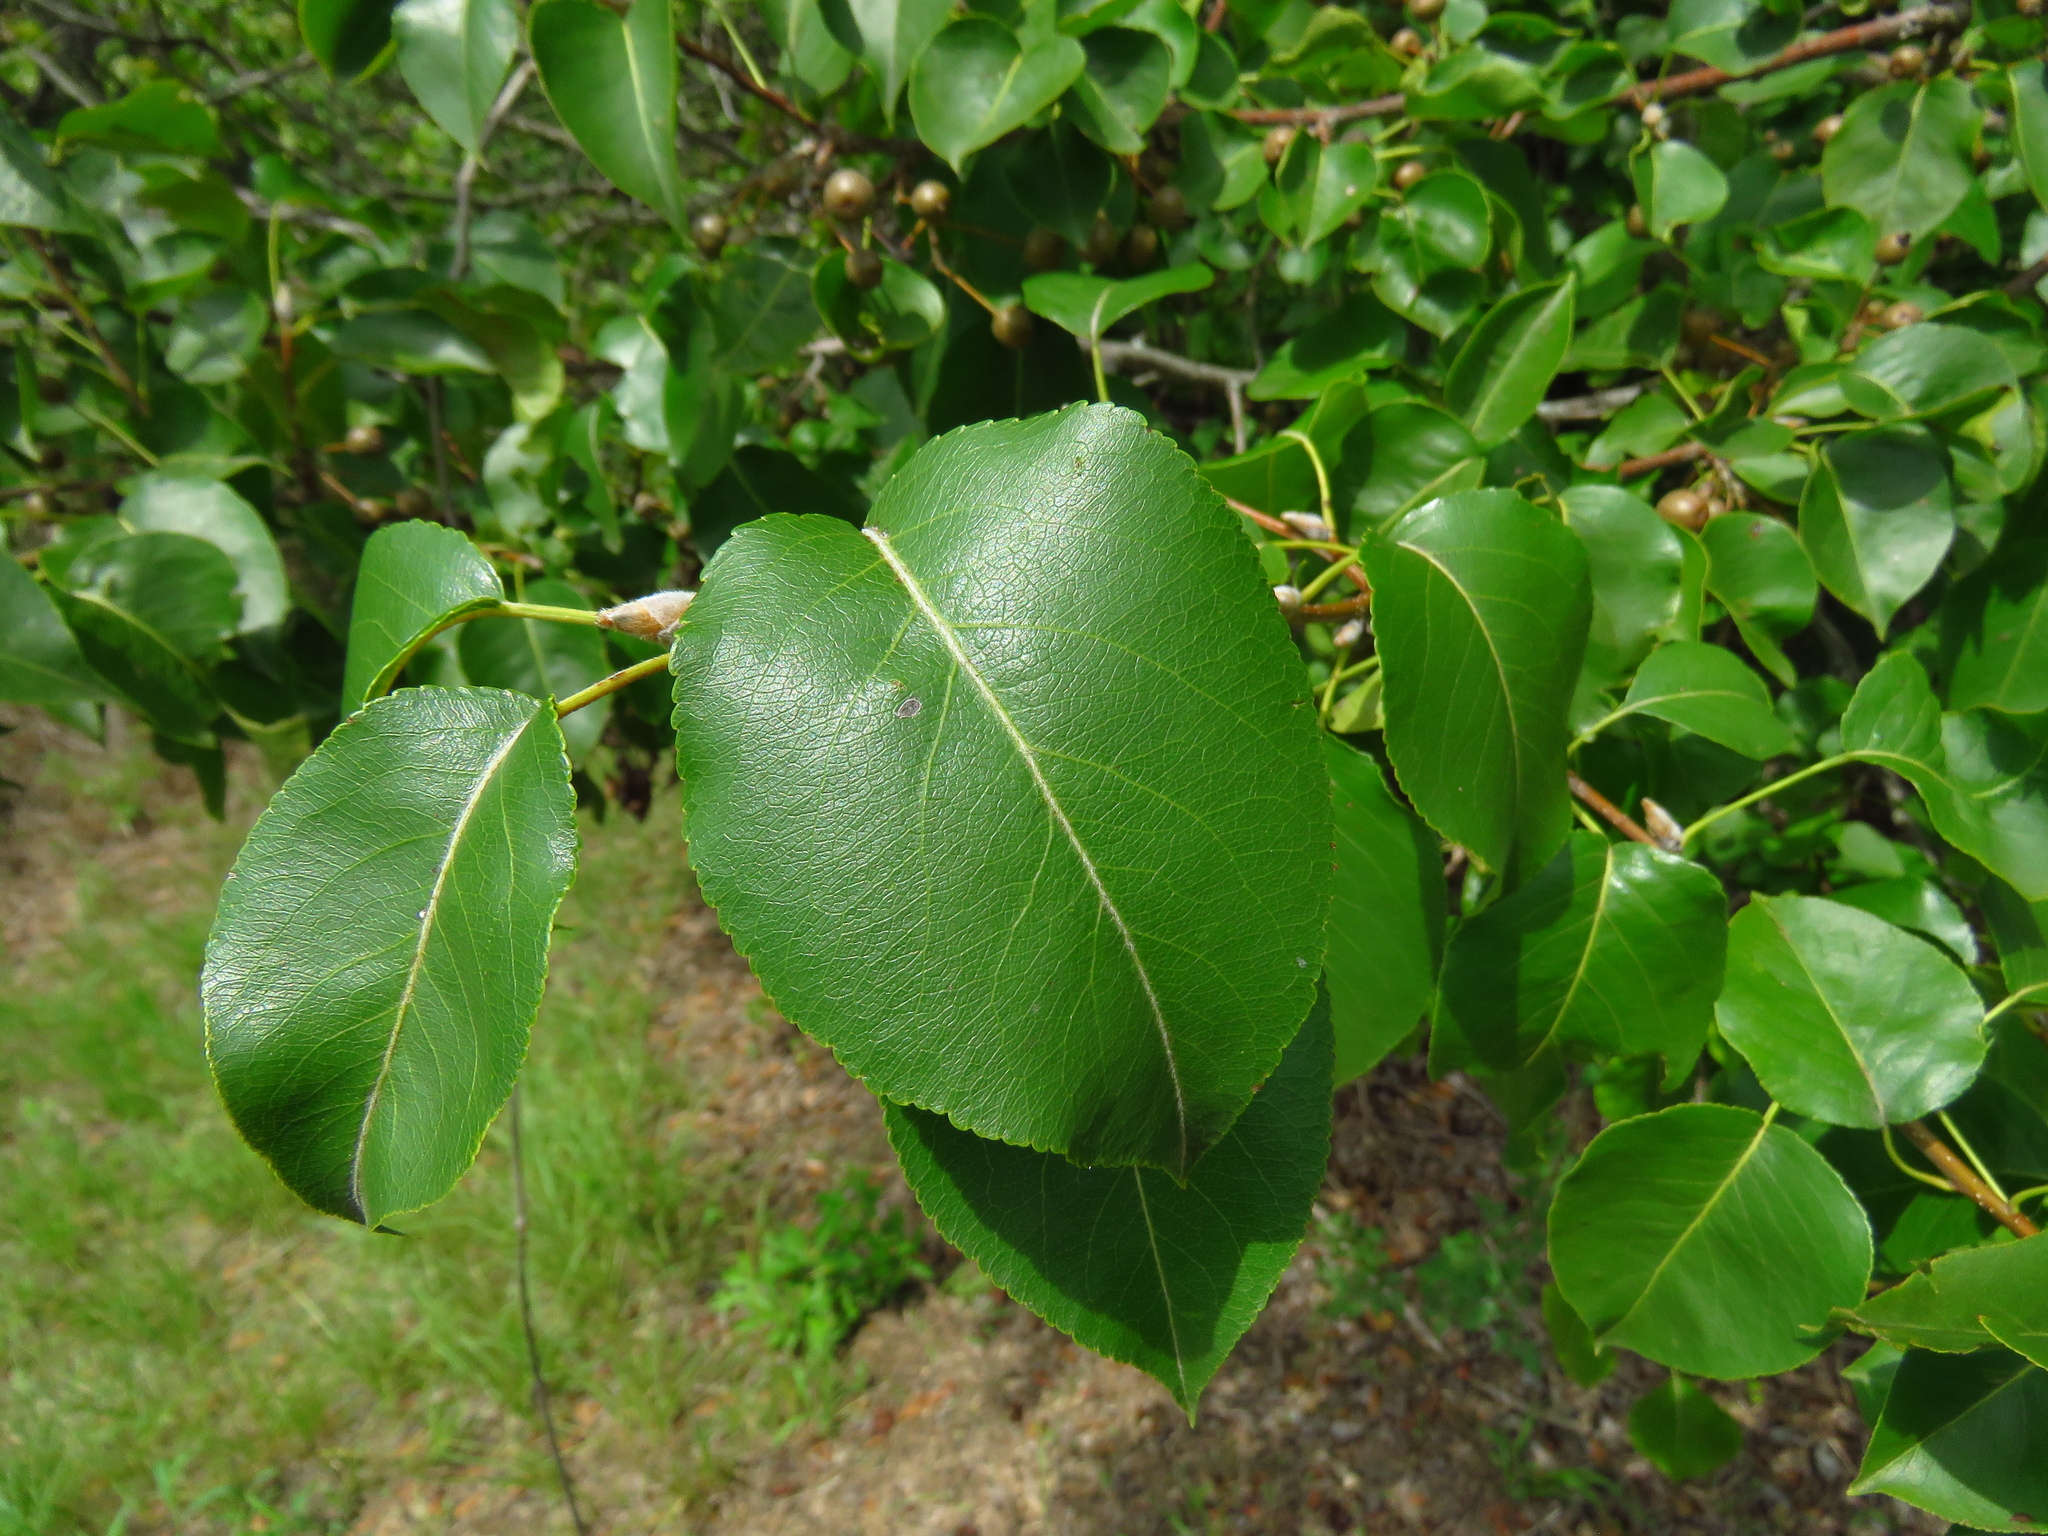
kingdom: Plantae
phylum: Tracheophyta
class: Magnoliopsida
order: Rosales
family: Rosaceae
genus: Pyrus
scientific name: Pyrus calleryana
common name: Callery pear
